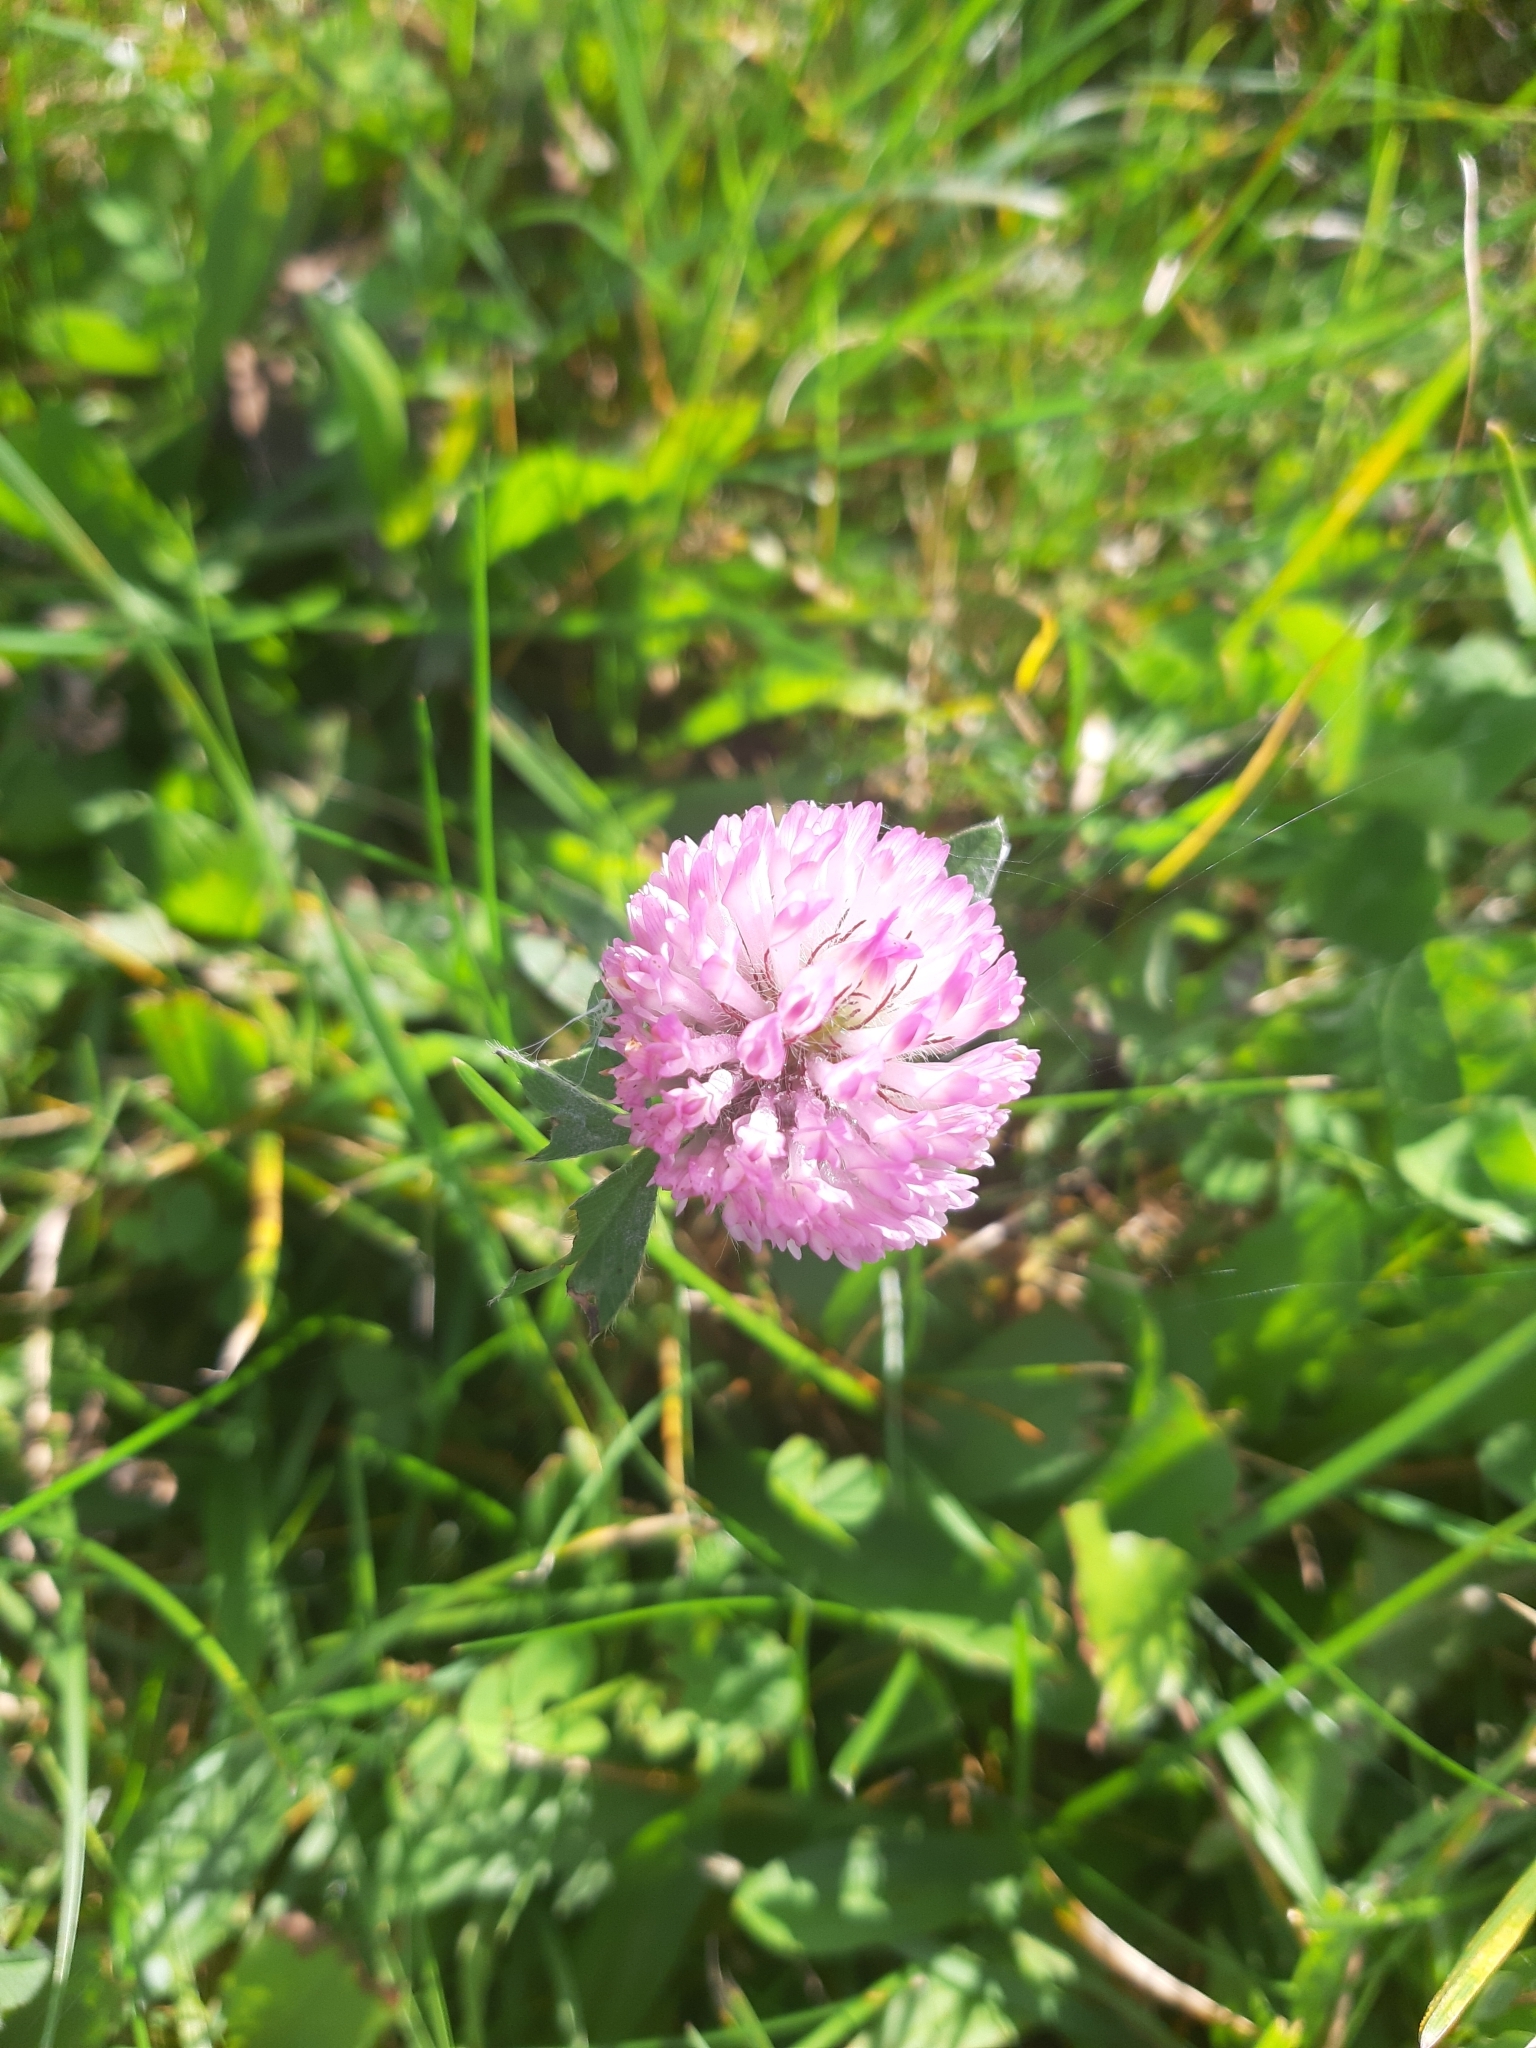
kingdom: Plantae
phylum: Tracheophyta
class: Magnoliopsida
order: Fabales
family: Fabaceae
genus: Trifolium
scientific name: Trifolium pratense
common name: Red clover
